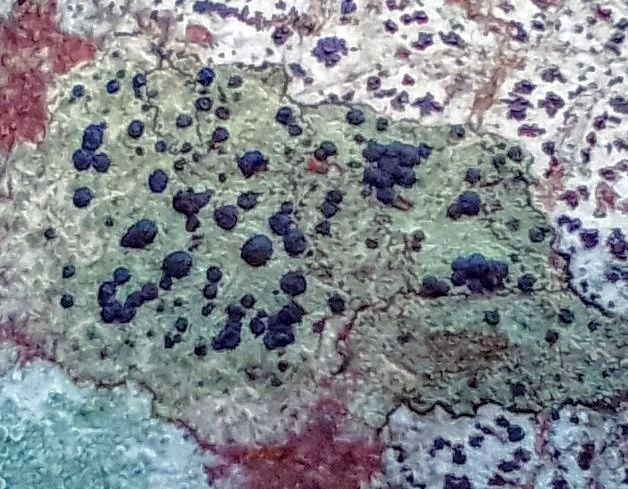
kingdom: Fungi
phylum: Ascomycota
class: Lecanoromycetes
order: Lecanorales
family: Lecanoraceae
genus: Lecidella
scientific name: Lecidella elaeochroma
